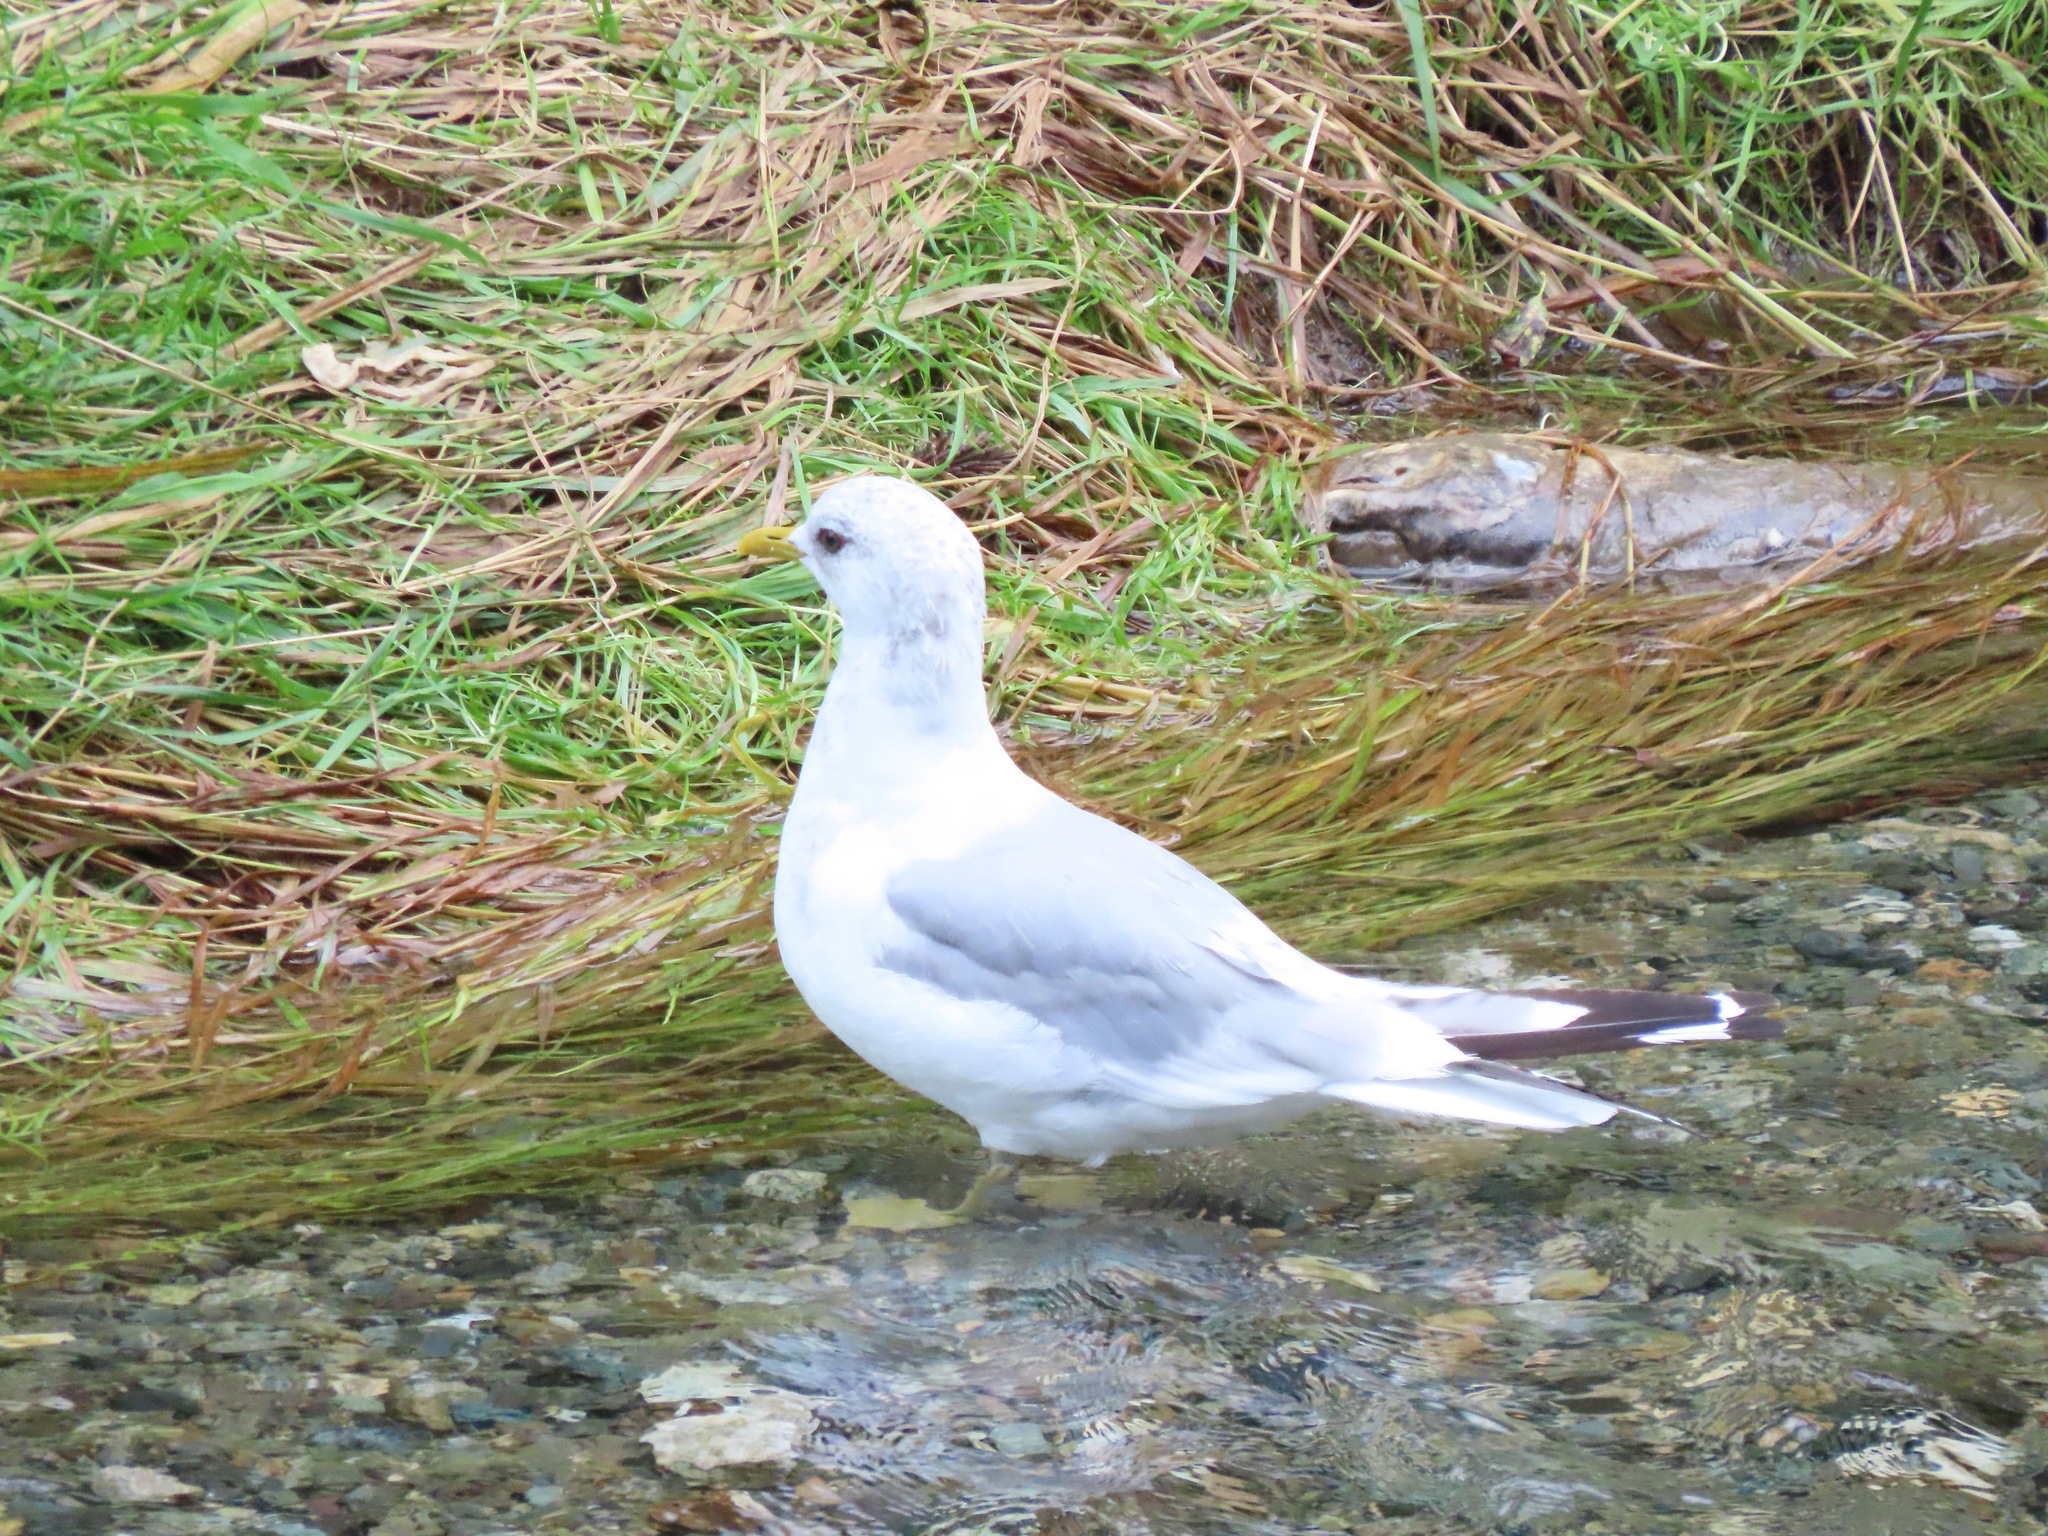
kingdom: Animalia
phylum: Chordata
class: Aves
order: Charadriiformes
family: Laridae
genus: Larus
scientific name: Larus brachyrhynchus
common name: Short-billed gull
